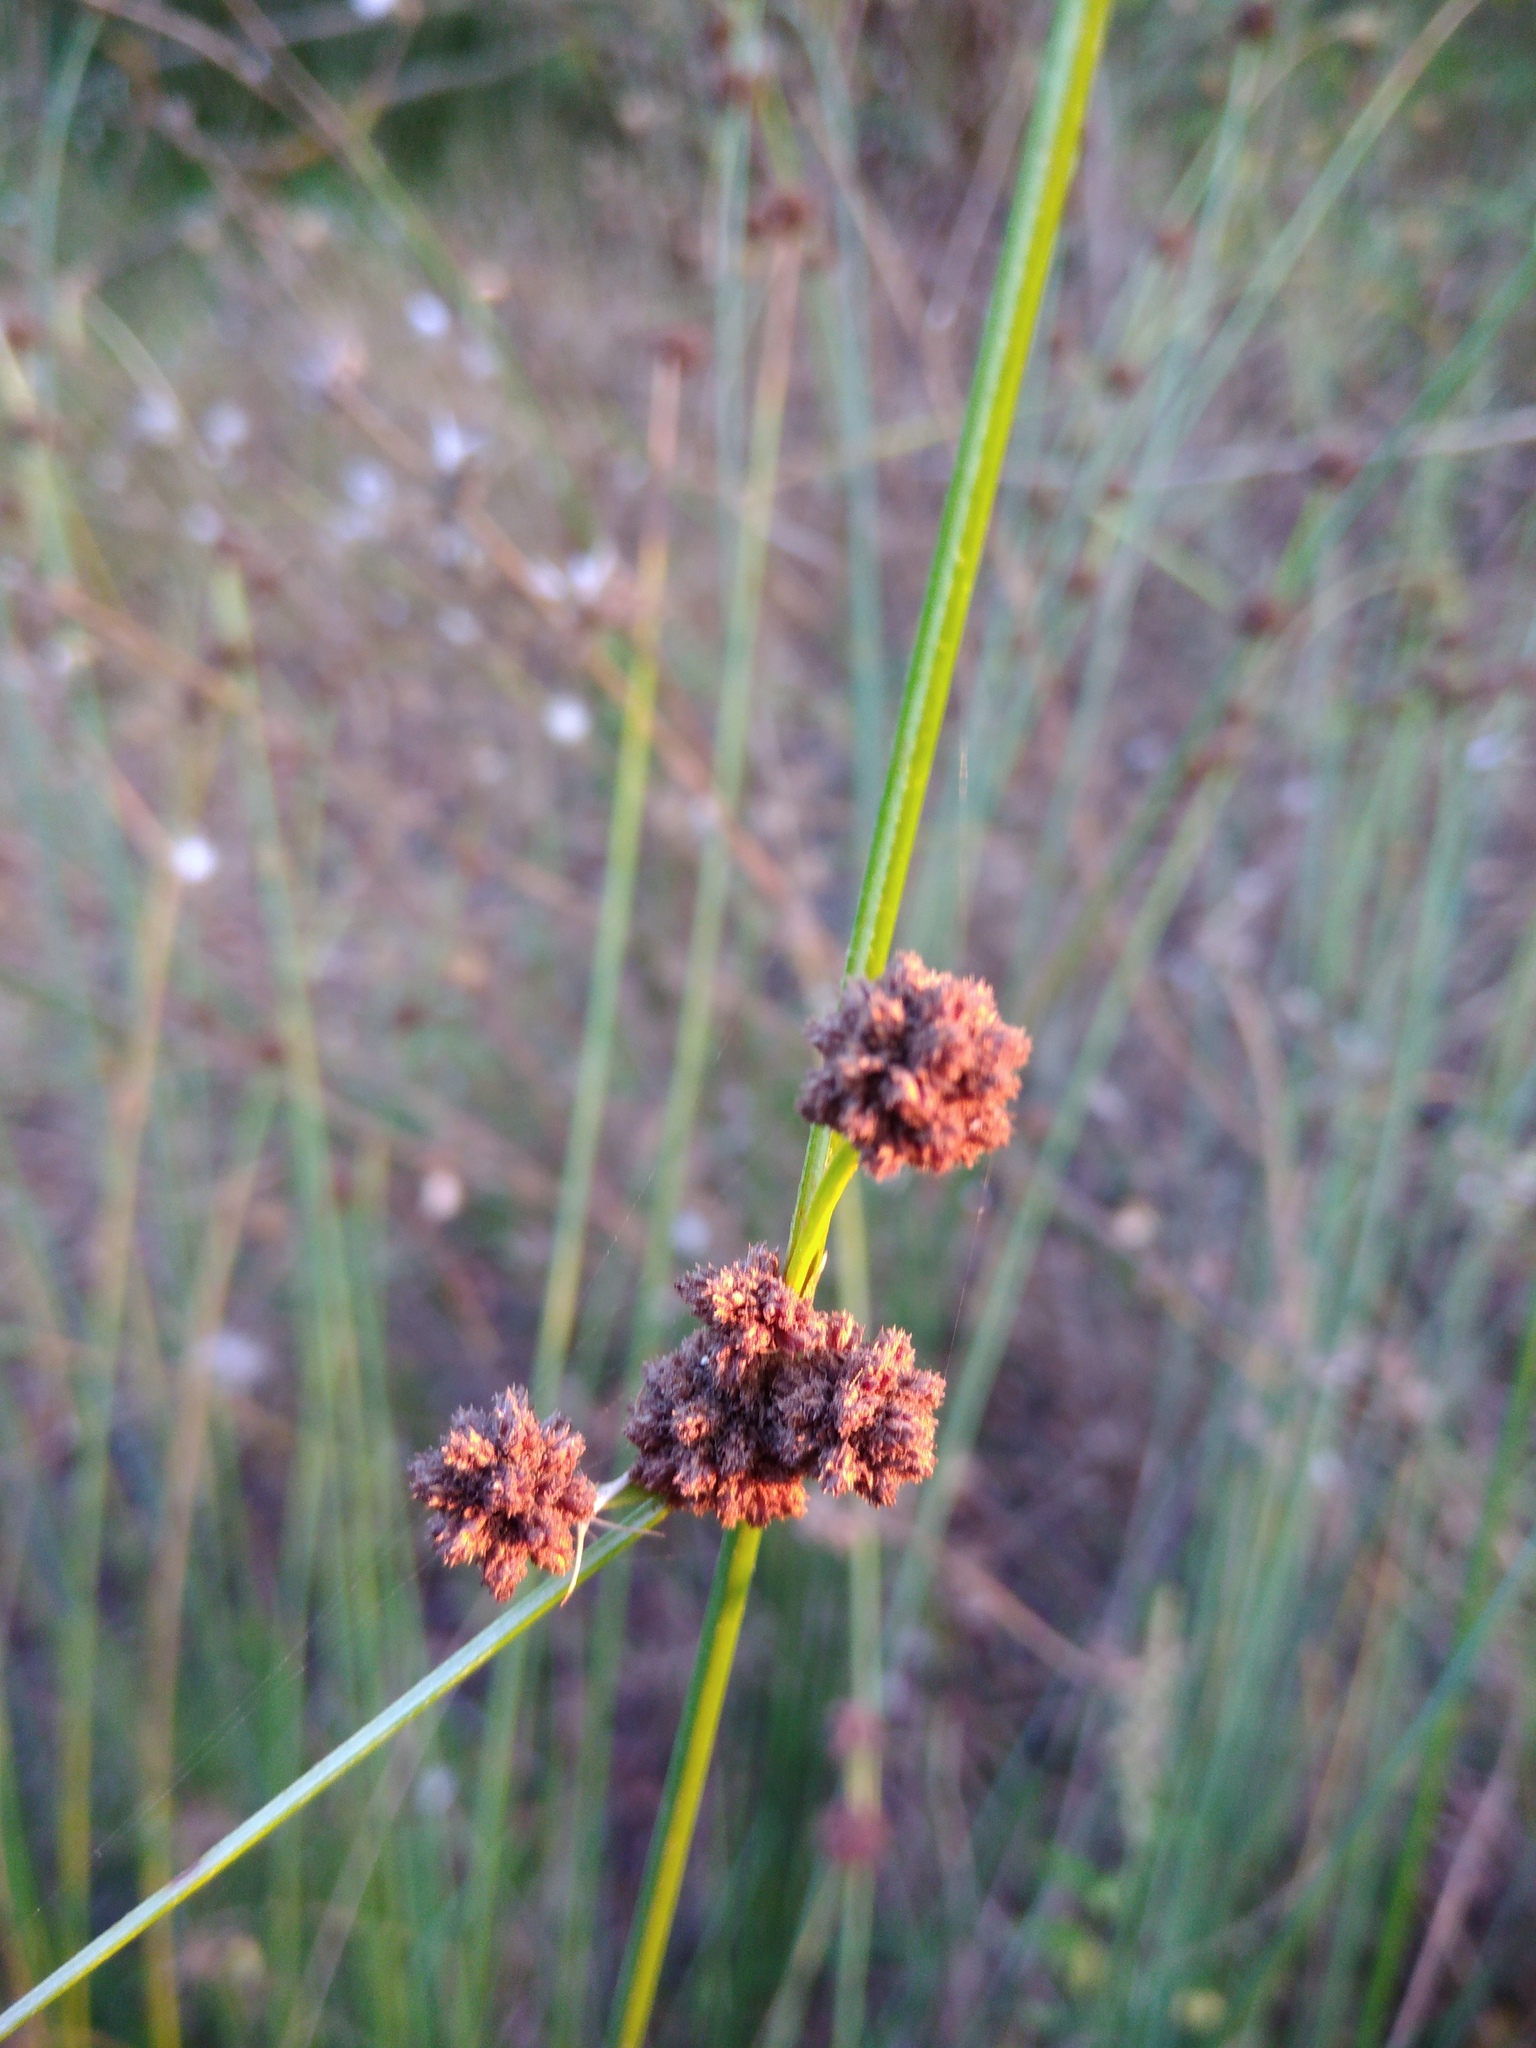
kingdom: Plantae
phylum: Tracheophyta
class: Liliopsida
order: Poales
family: Cyperaceae
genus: Scirpoides
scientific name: Scirpoides holoschoenus
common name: Round-headed club-rush
